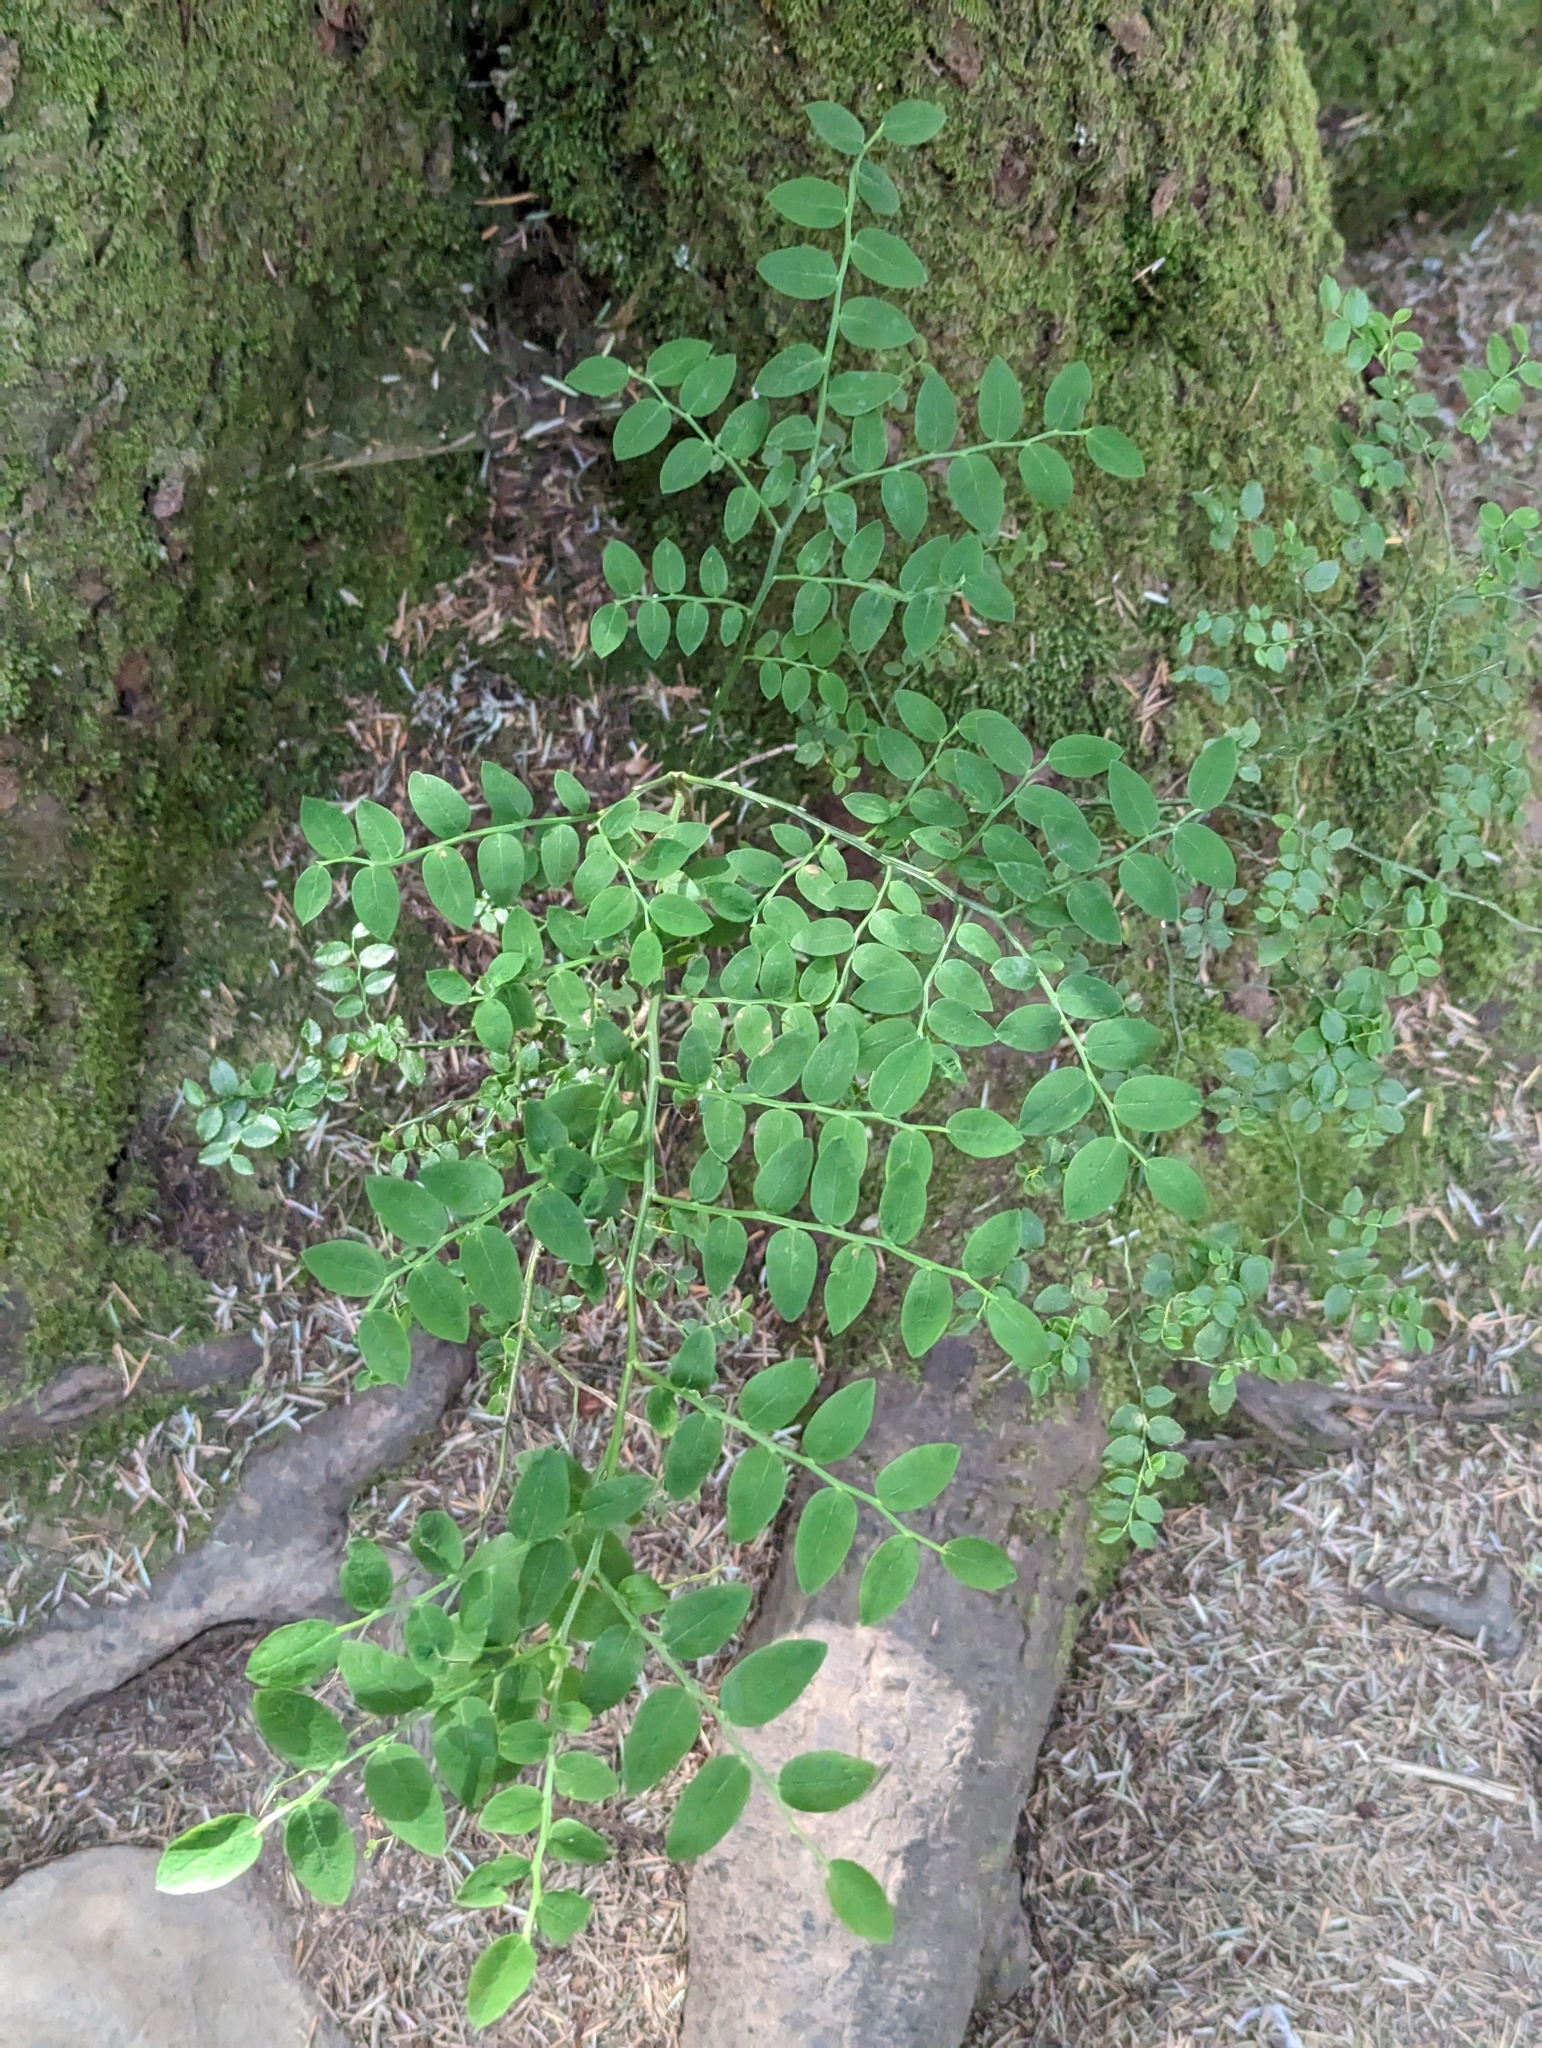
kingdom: Plantae
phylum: Tracheophyta
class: Magnoliopsida
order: Ericales
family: Ericaceae
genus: Vaccinium
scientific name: Vaccinium parvifolium
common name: Red-huckleberry
